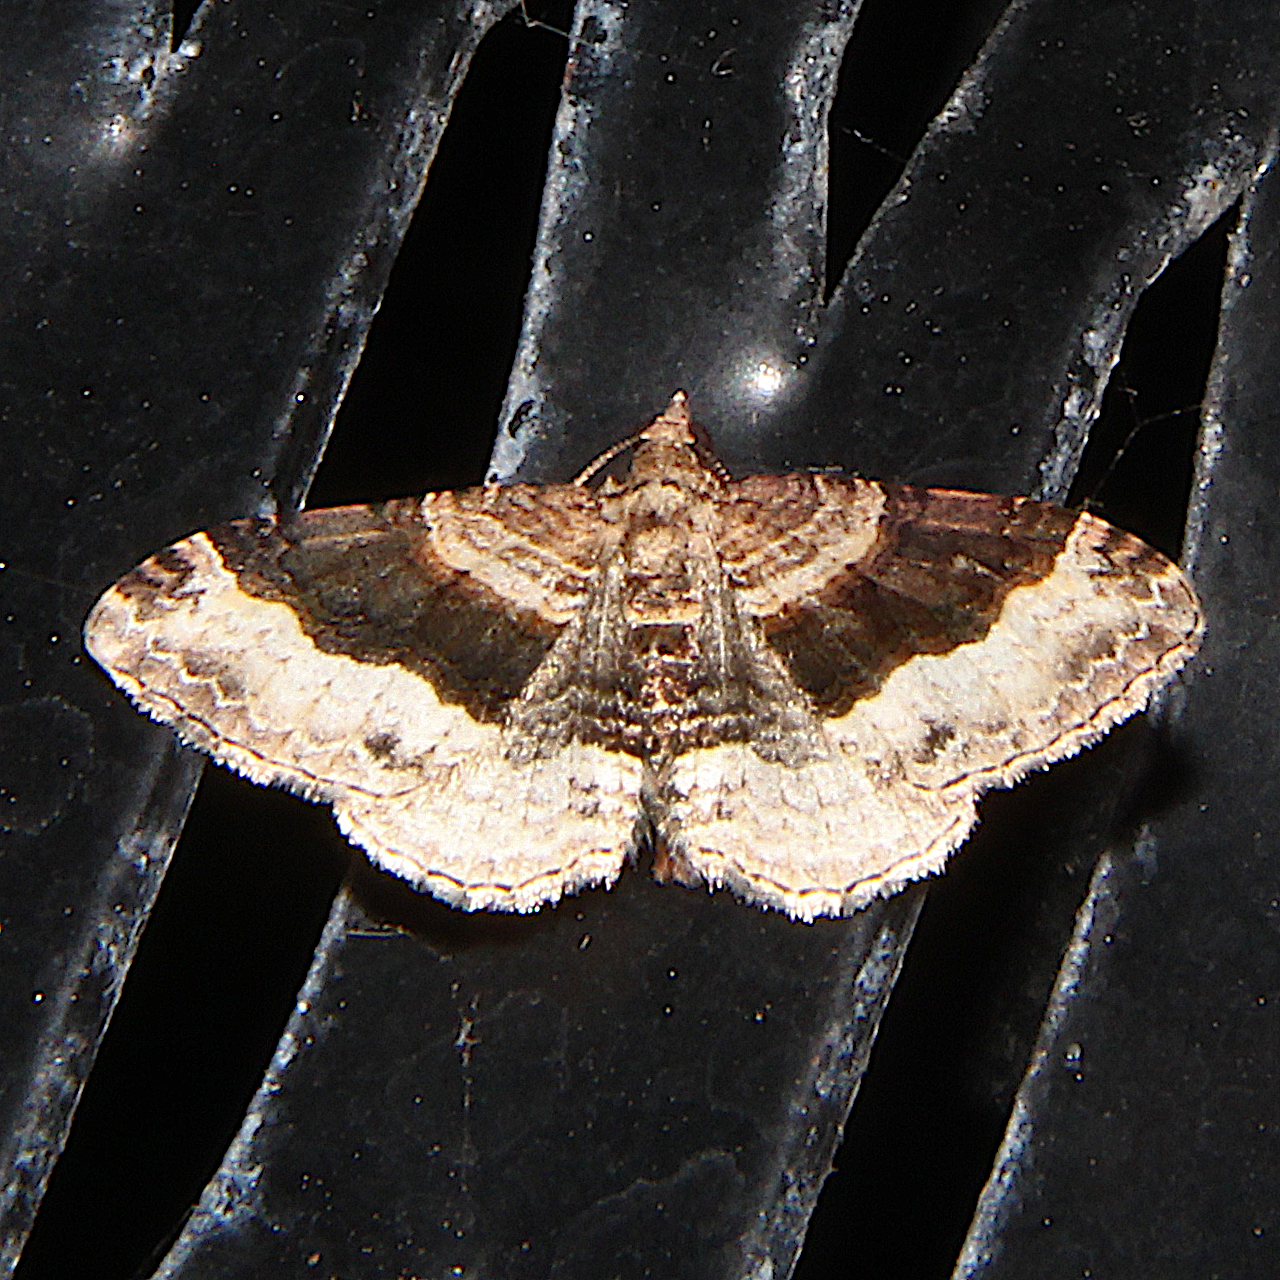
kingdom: Animalia
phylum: Arthropoda
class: Insecta
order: Lepidoptera
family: Geometridae
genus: Epyaxa
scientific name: Epyaxa lucidata
